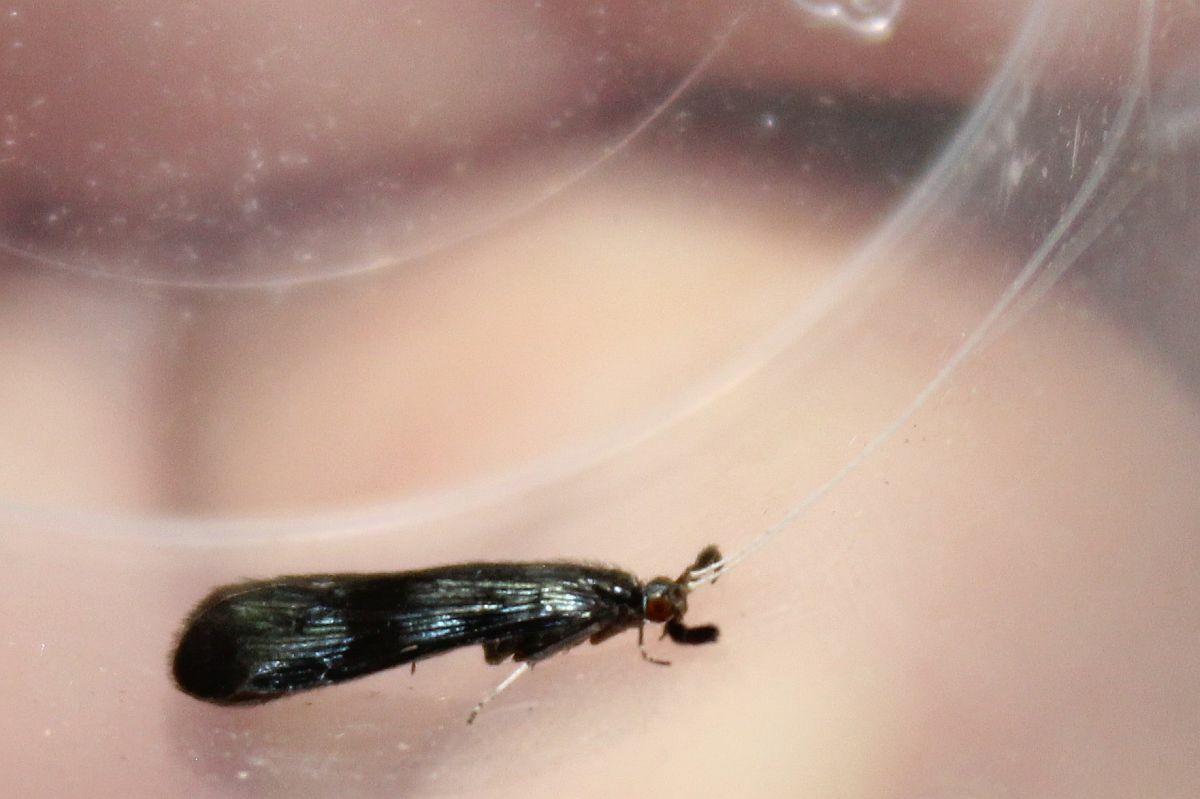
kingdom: Animalia
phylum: Arthropoda
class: Insecta
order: Trichoptera
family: Leptoceridae
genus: Mystacides
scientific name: Mystacides azureus
